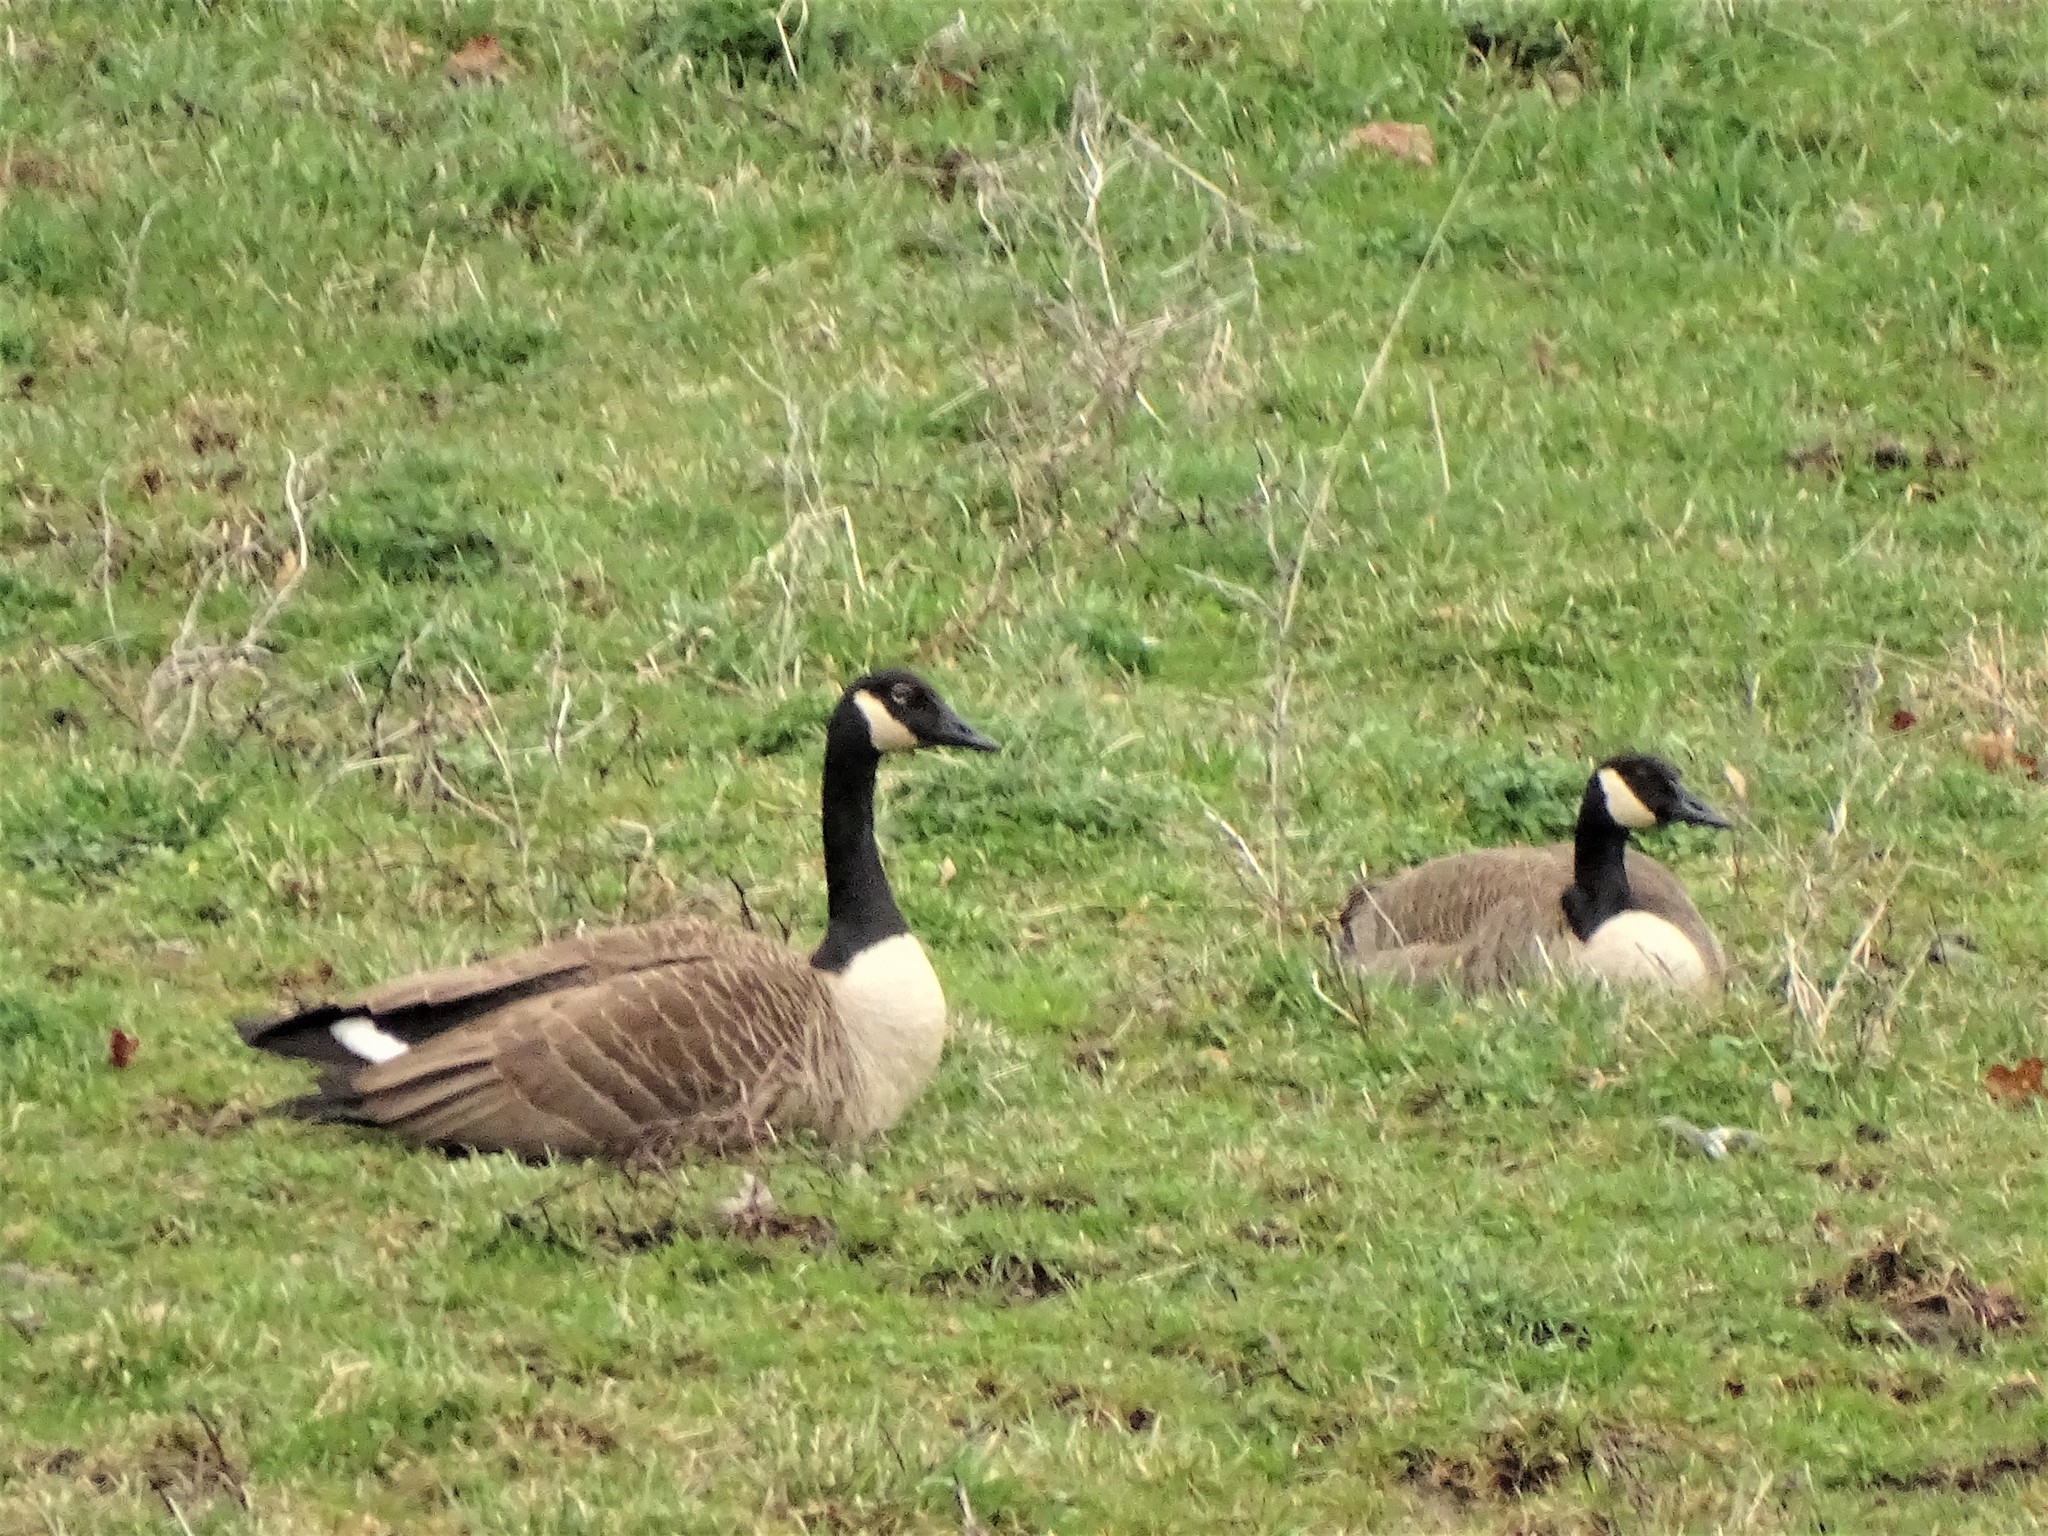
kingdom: Animalia
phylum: Chordata
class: Aves
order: Anseriformes
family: Anatidae
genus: Branta
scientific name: Branta canadensis
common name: Canada goose
